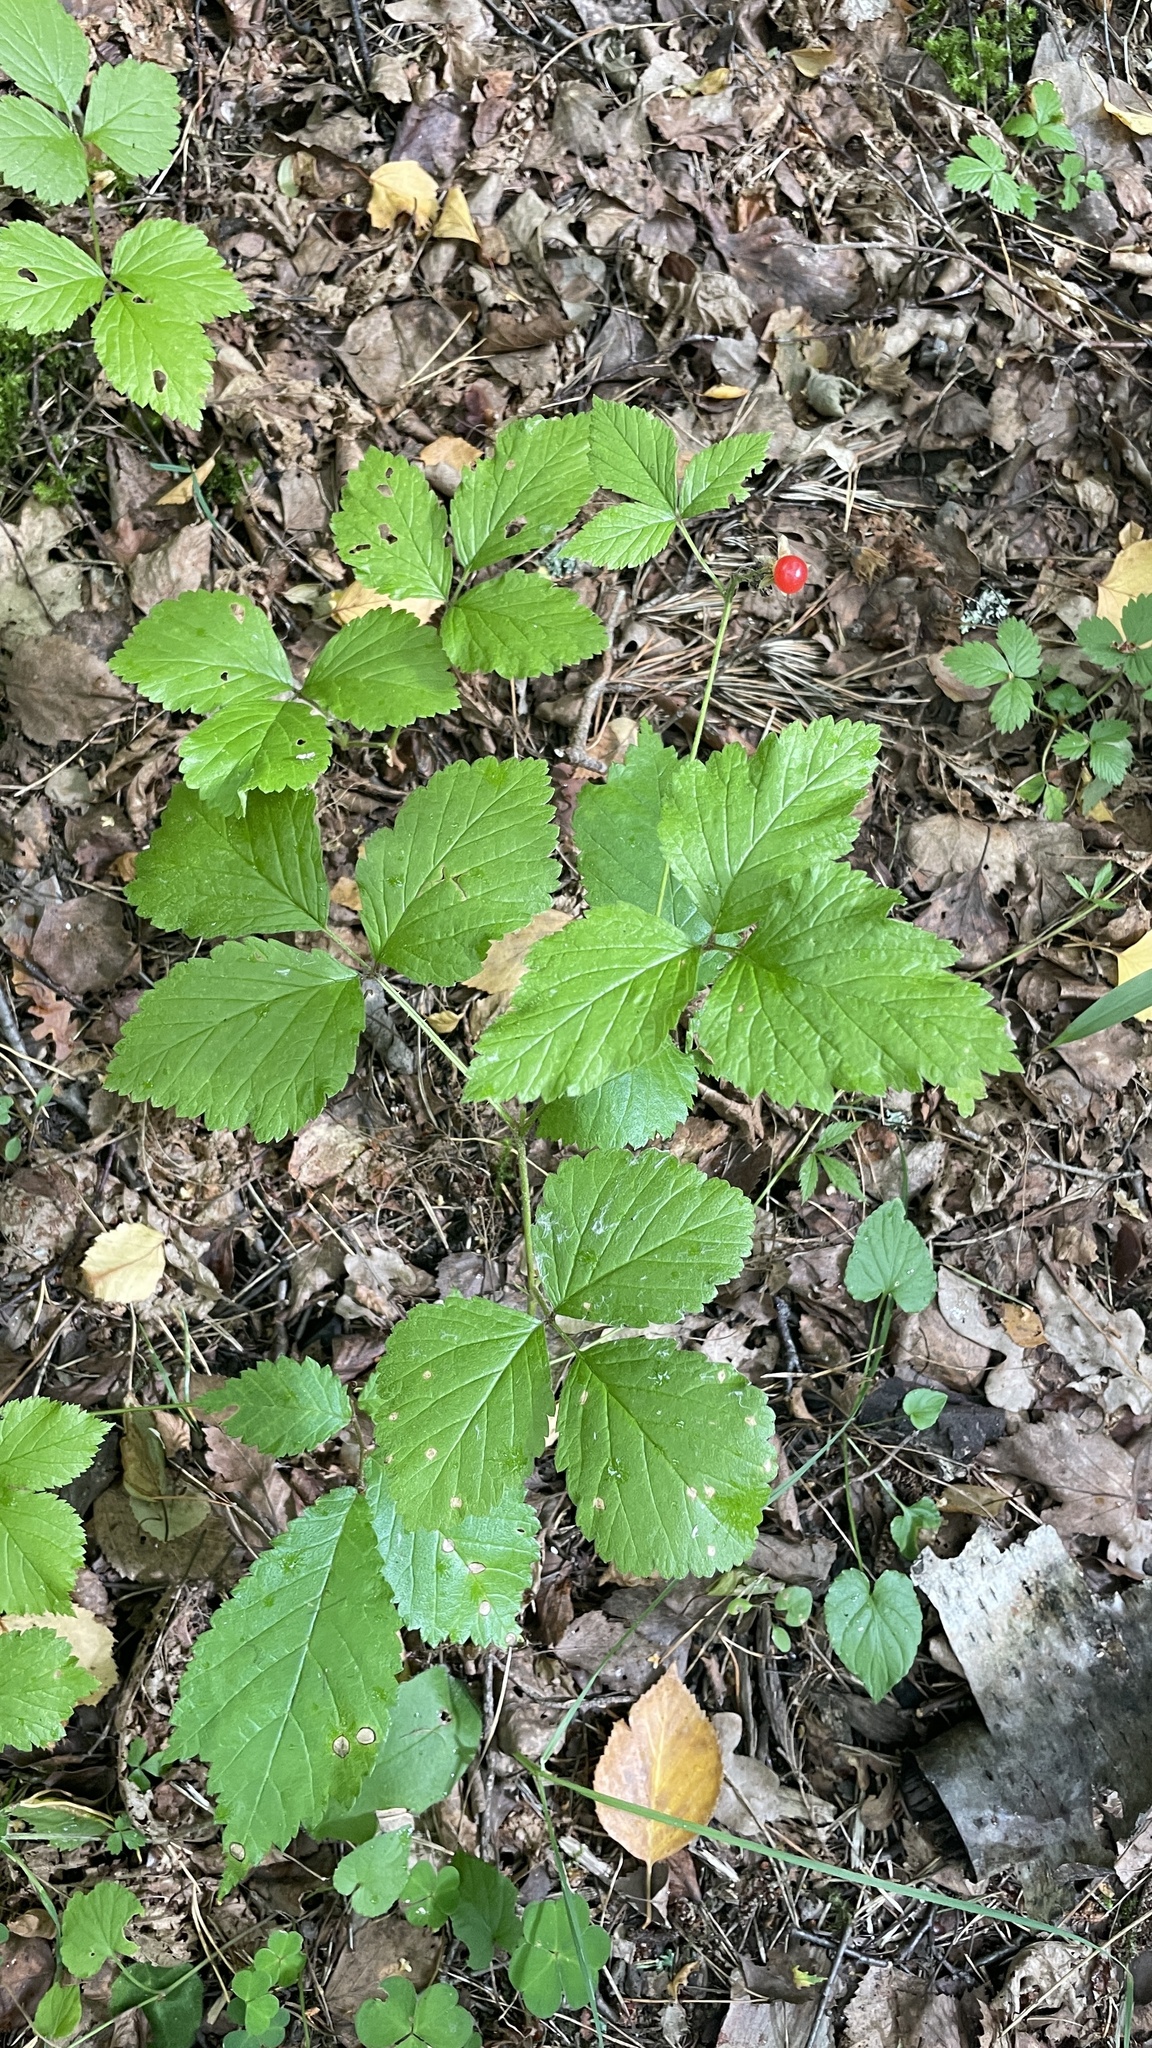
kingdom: Plantae
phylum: Tracheophyta
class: Magnoliopsida
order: Rosales
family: Rosaceae
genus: Rubus
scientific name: Rubus saxatilis
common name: Stone bramble
